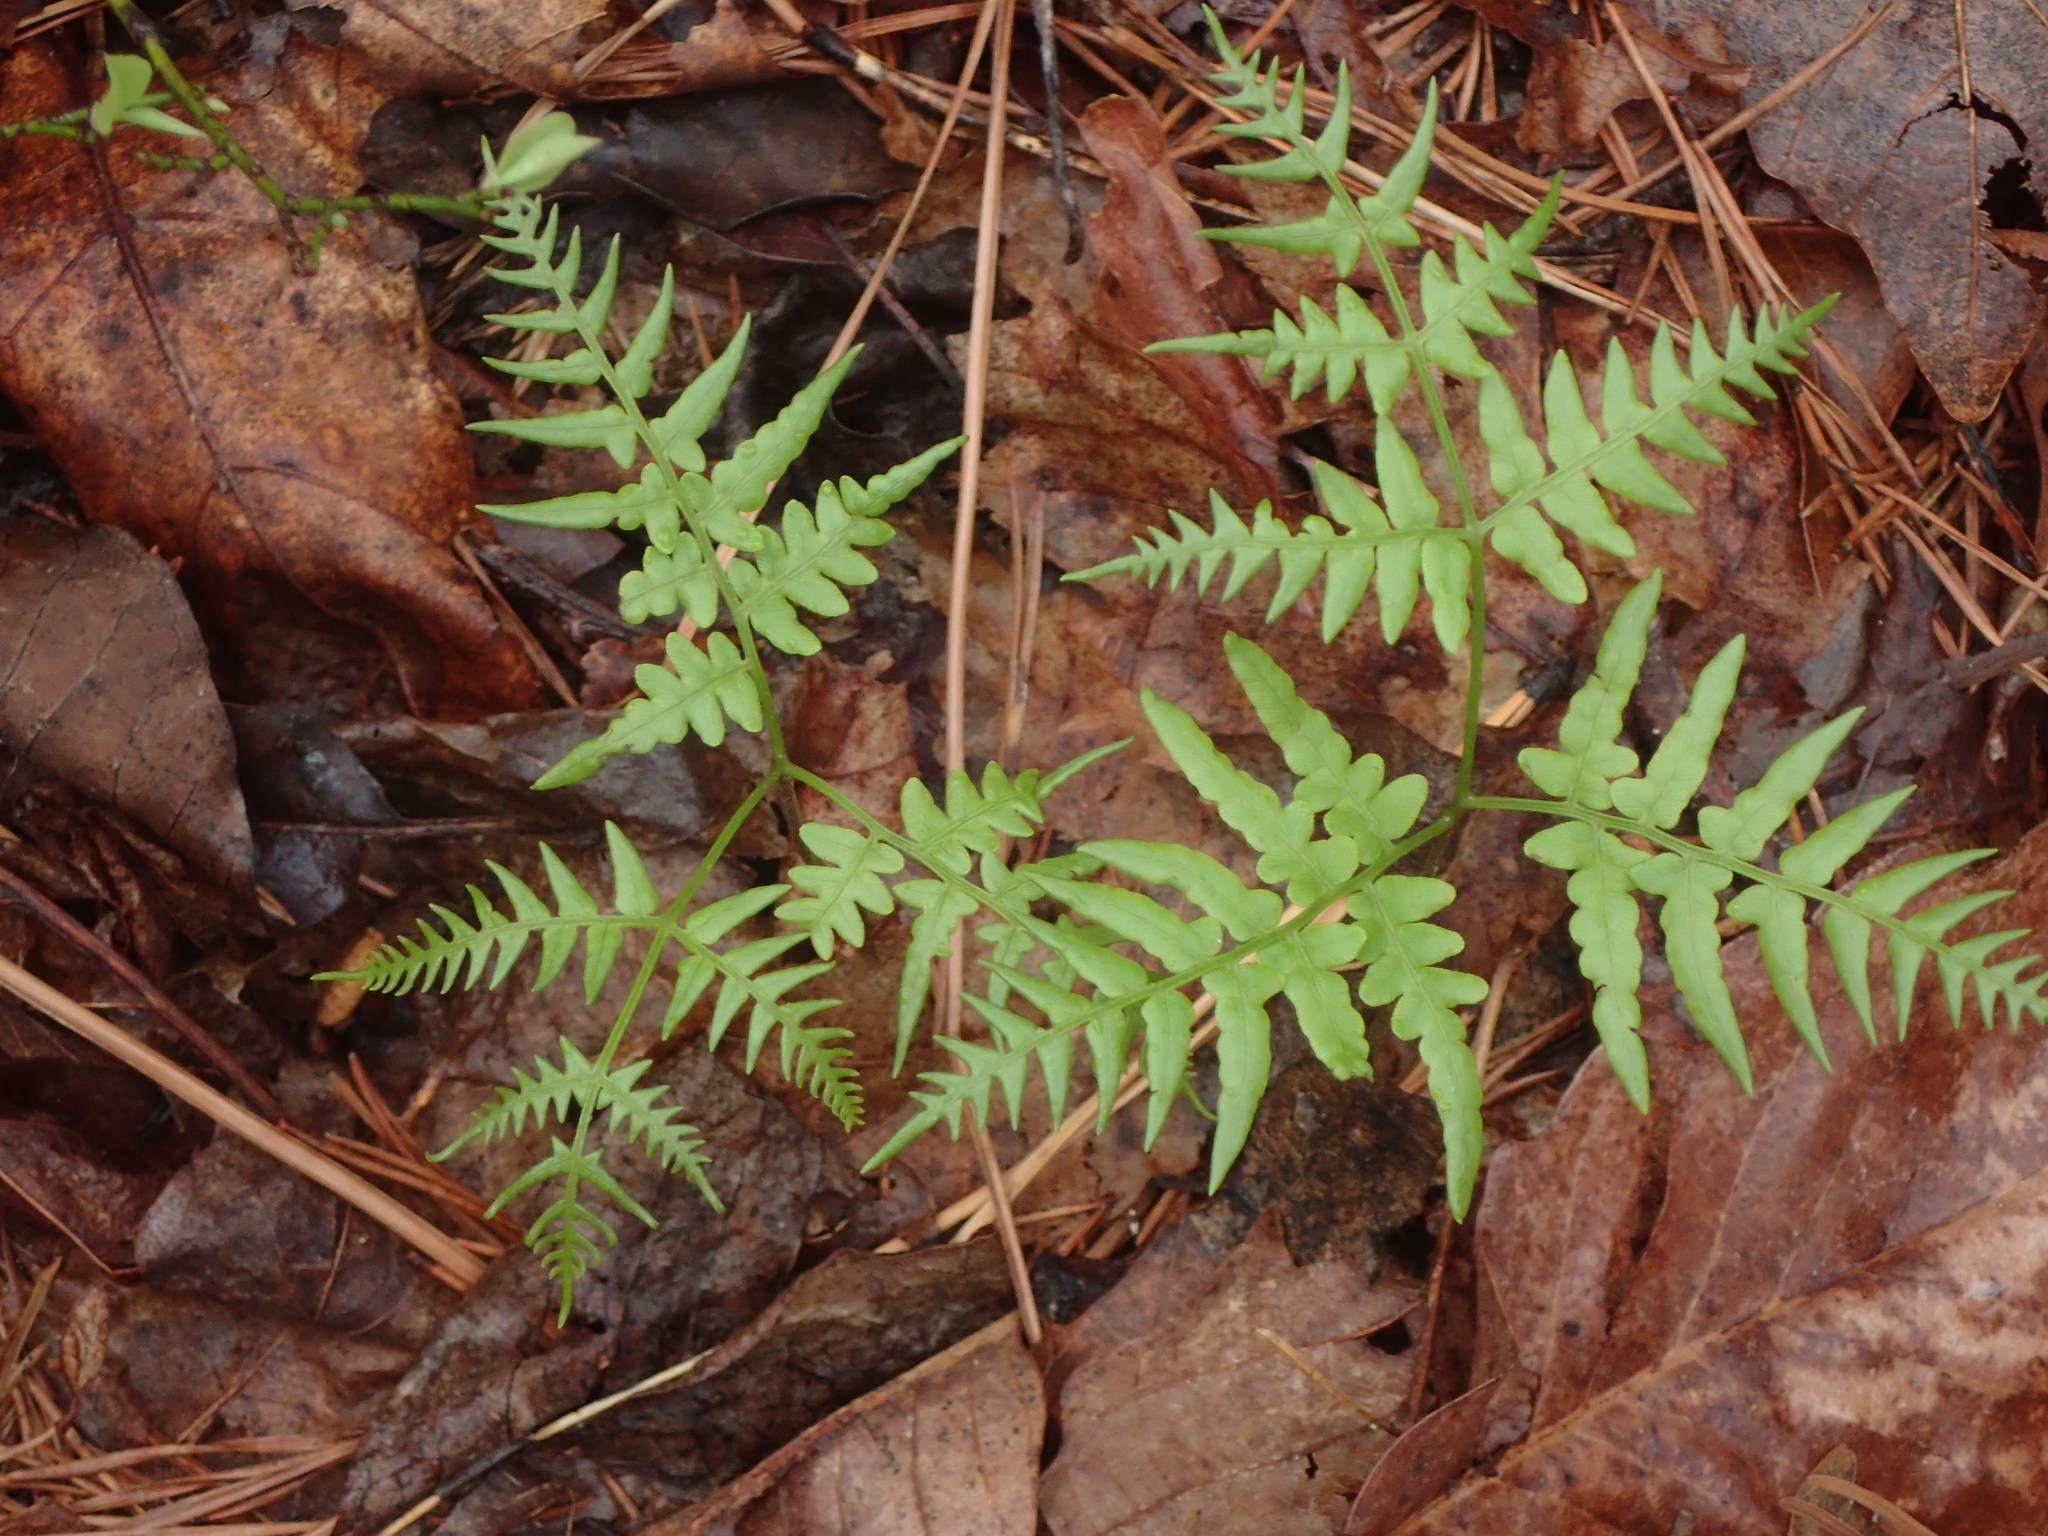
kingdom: Plantae
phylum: Tracheophyta
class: Polypodiopsida
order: Polypodiales
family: Dennstaedtiaceae
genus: Pteridium
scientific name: Pteridium aquilinum
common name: Bracken
